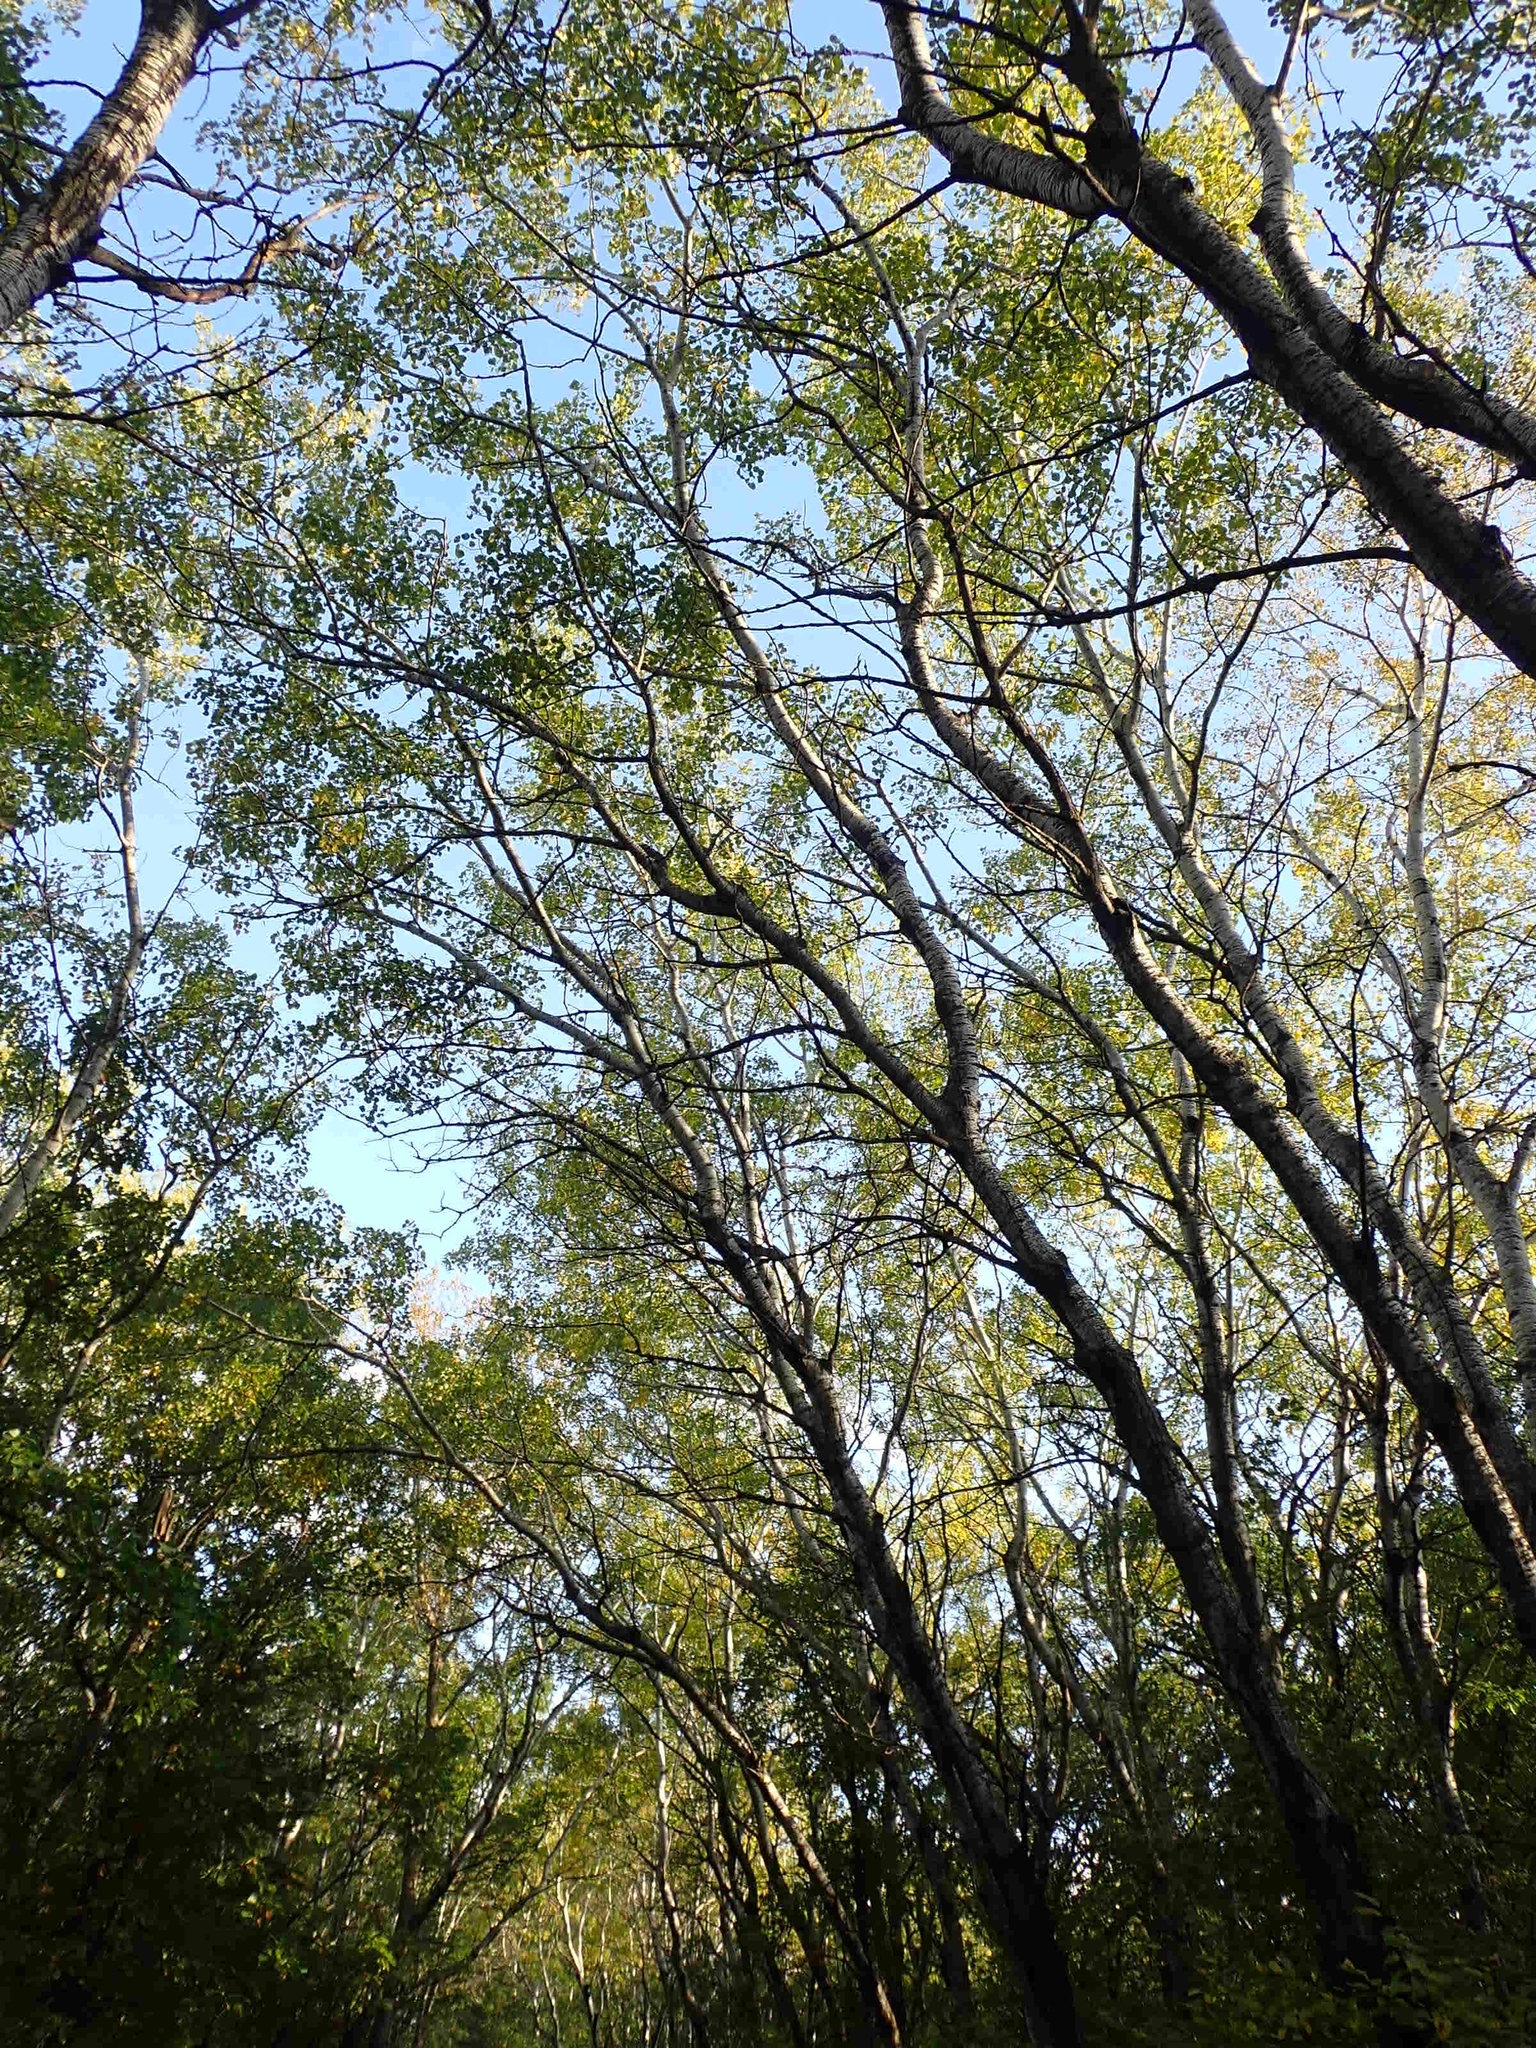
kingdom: Plantae
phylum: Tracheophyta
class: Magnoliopsida
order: Malpighiales
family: Salicaceae
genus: Populus
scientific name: Populus tremuloides
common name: Quaking aspen
